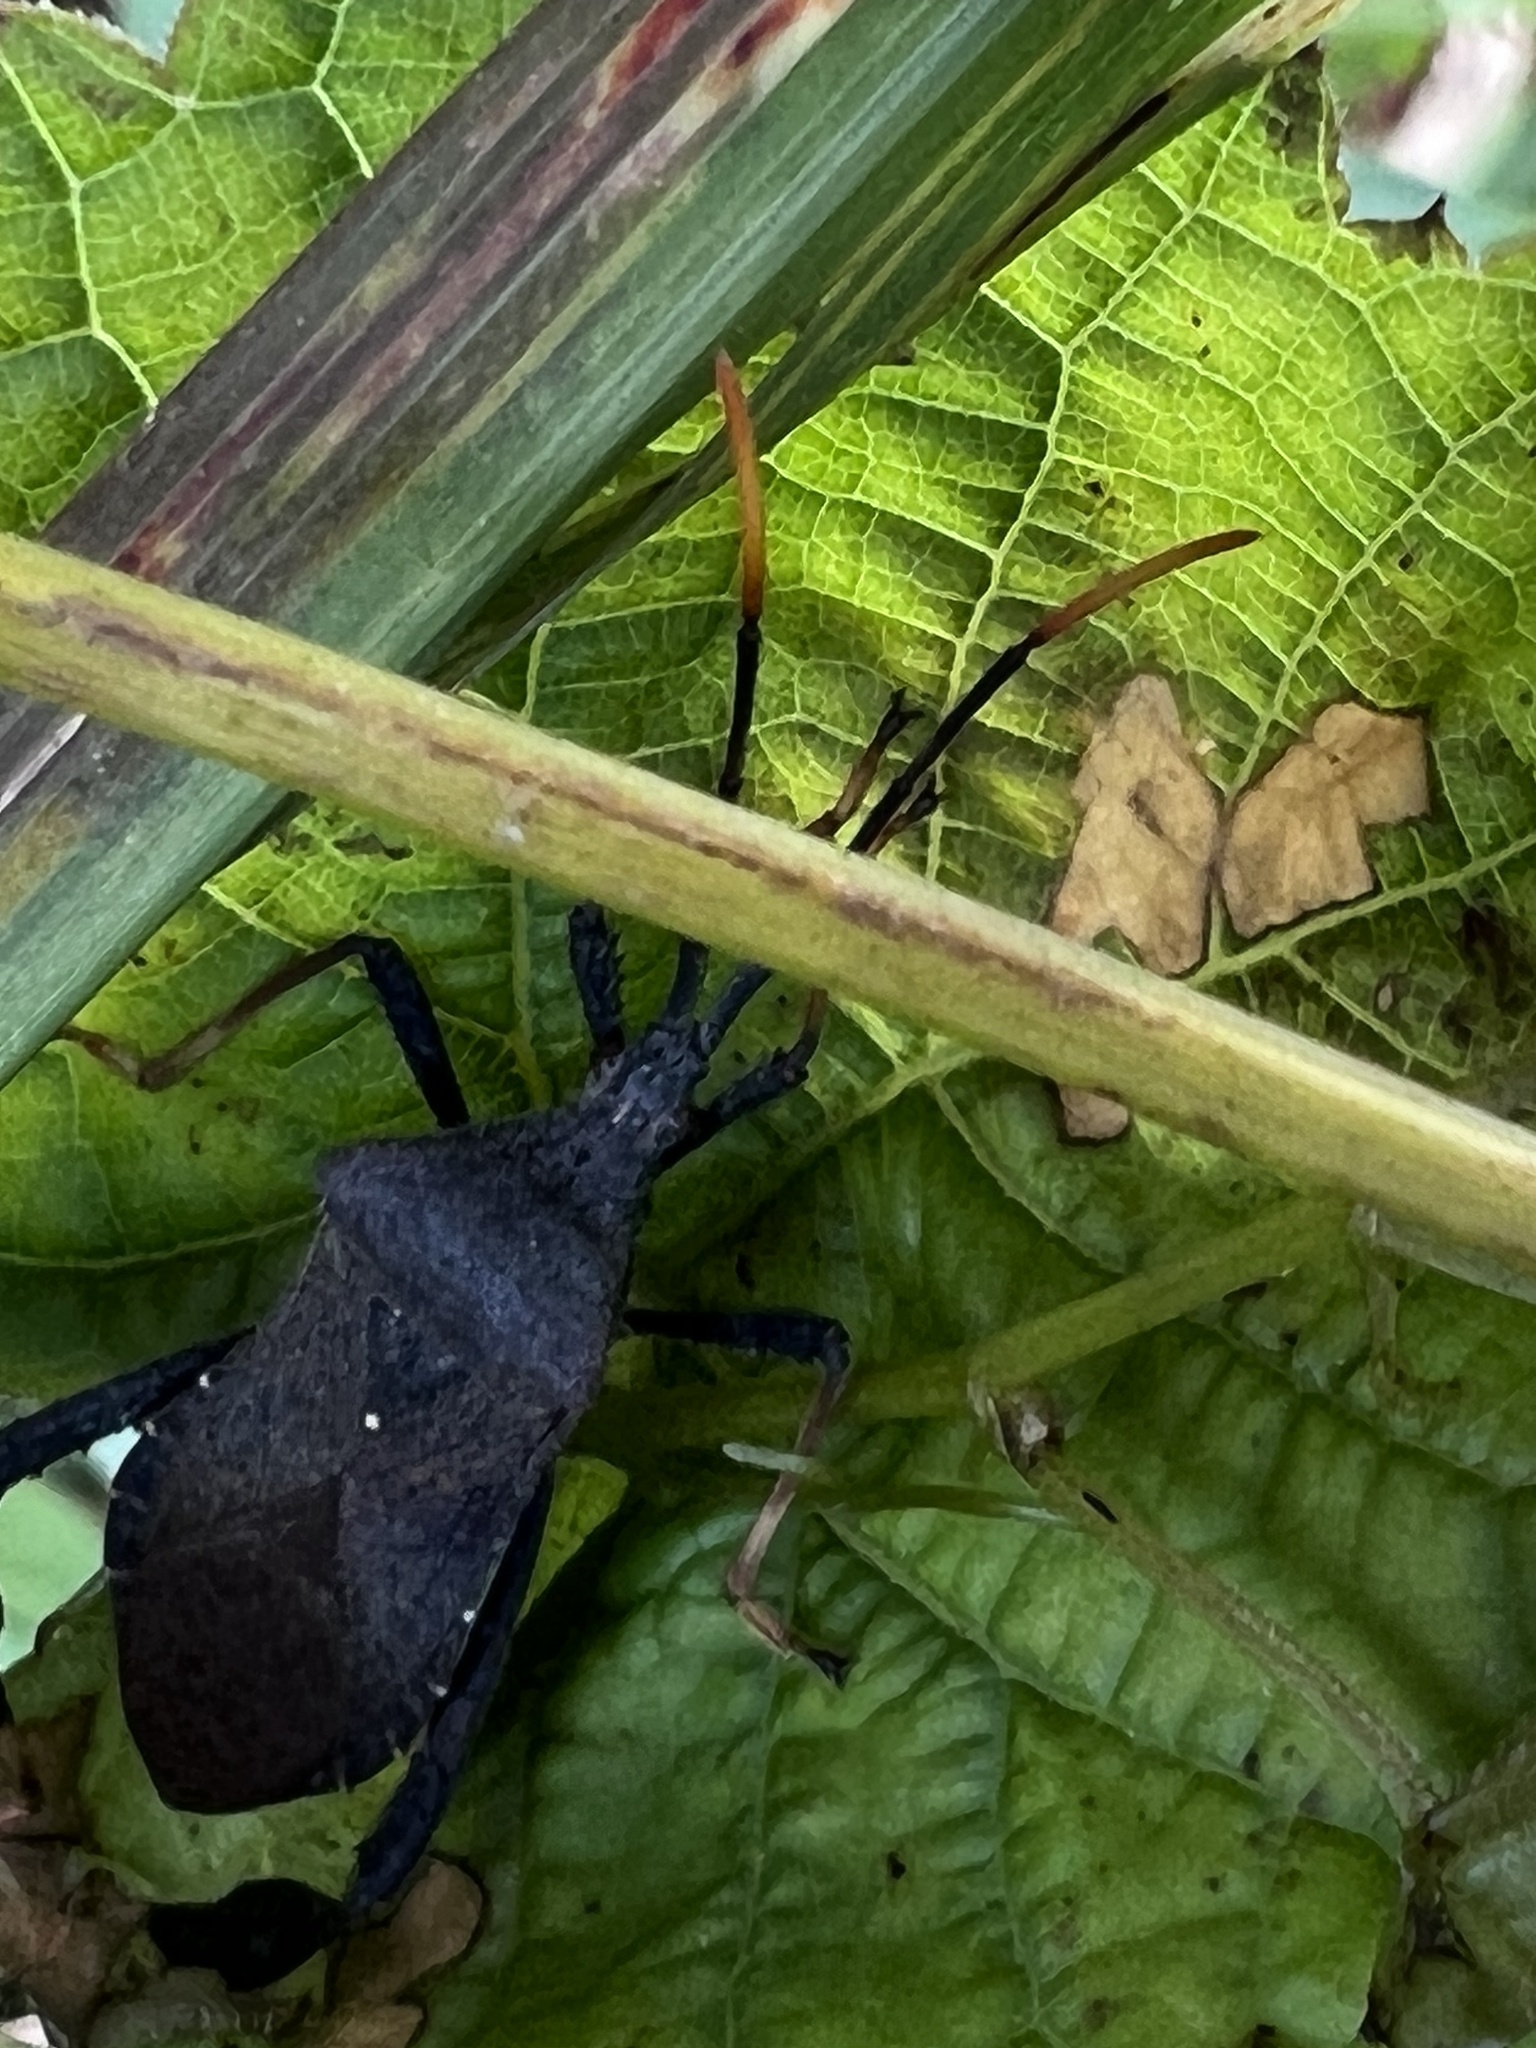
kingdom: Animalia
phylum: Arthropoda
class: Insecta
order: Hemiptera
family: Coreidae
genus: Acanthocephala
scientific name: Acanthocephala terminalis
